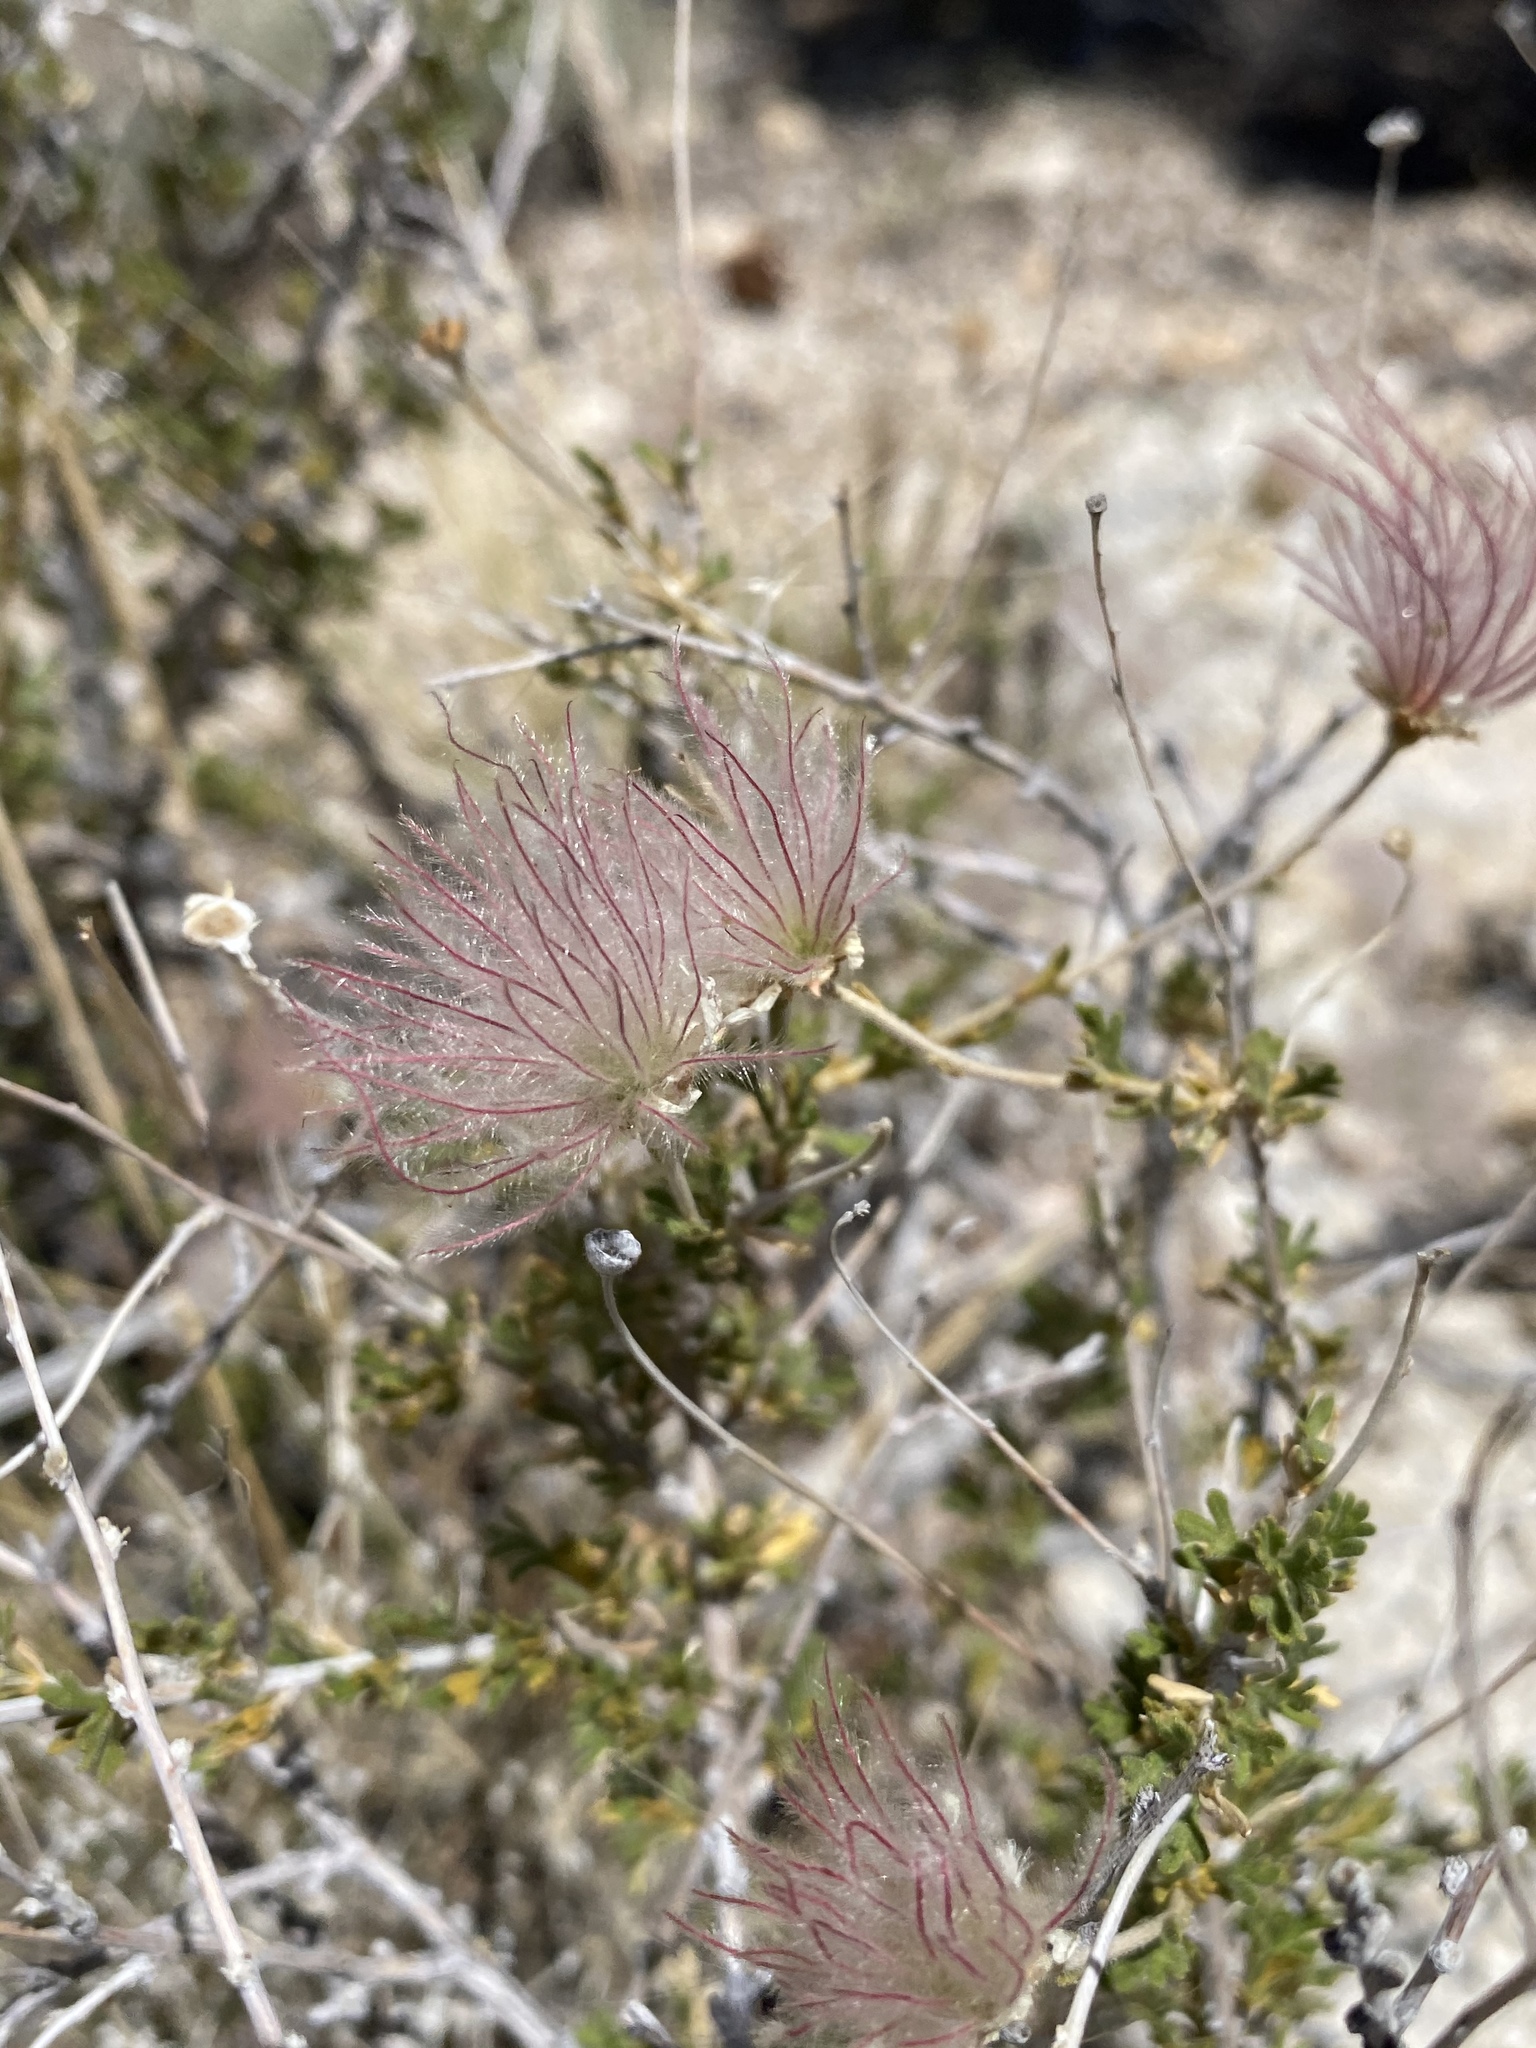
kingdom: Plantae
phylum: Tracheophyta
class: Magnoliopsida
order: Rosales
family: Rosaceae
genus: Fallugia
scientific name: Fallugia paradoxa
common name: Apache-plume
